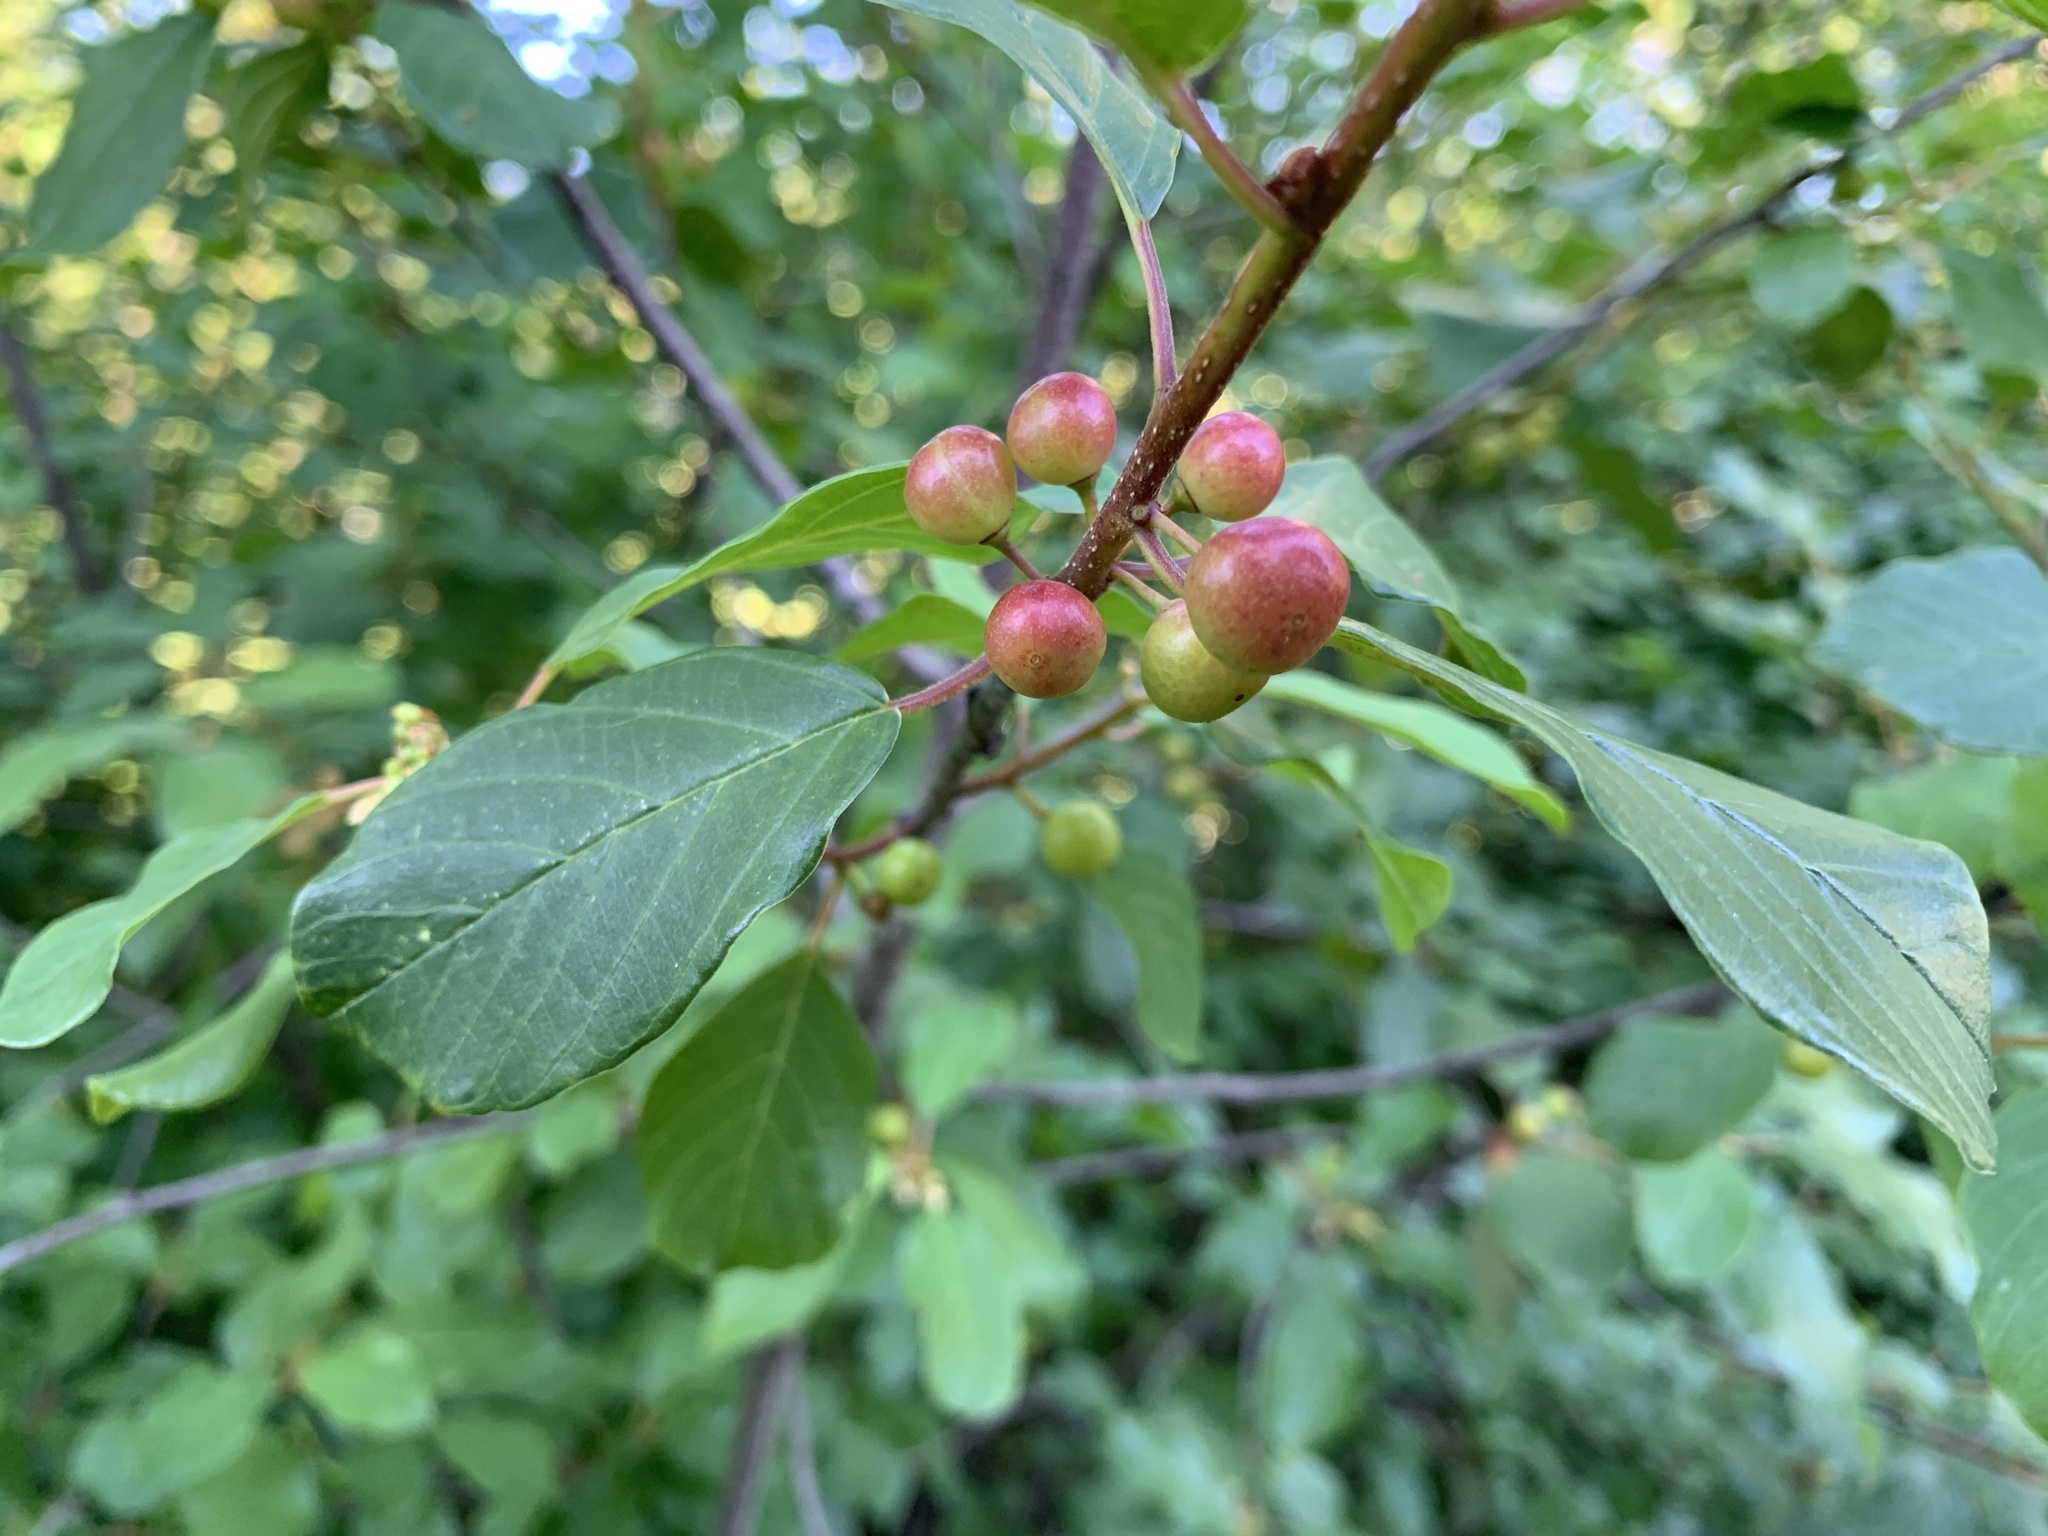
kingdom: Plantae
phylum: Tracheophyta
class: Magnoliopsida
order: Rosales
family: Rhamnaceae
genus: Frangula
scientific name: Frangula alnus
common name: Alder buckthorn
